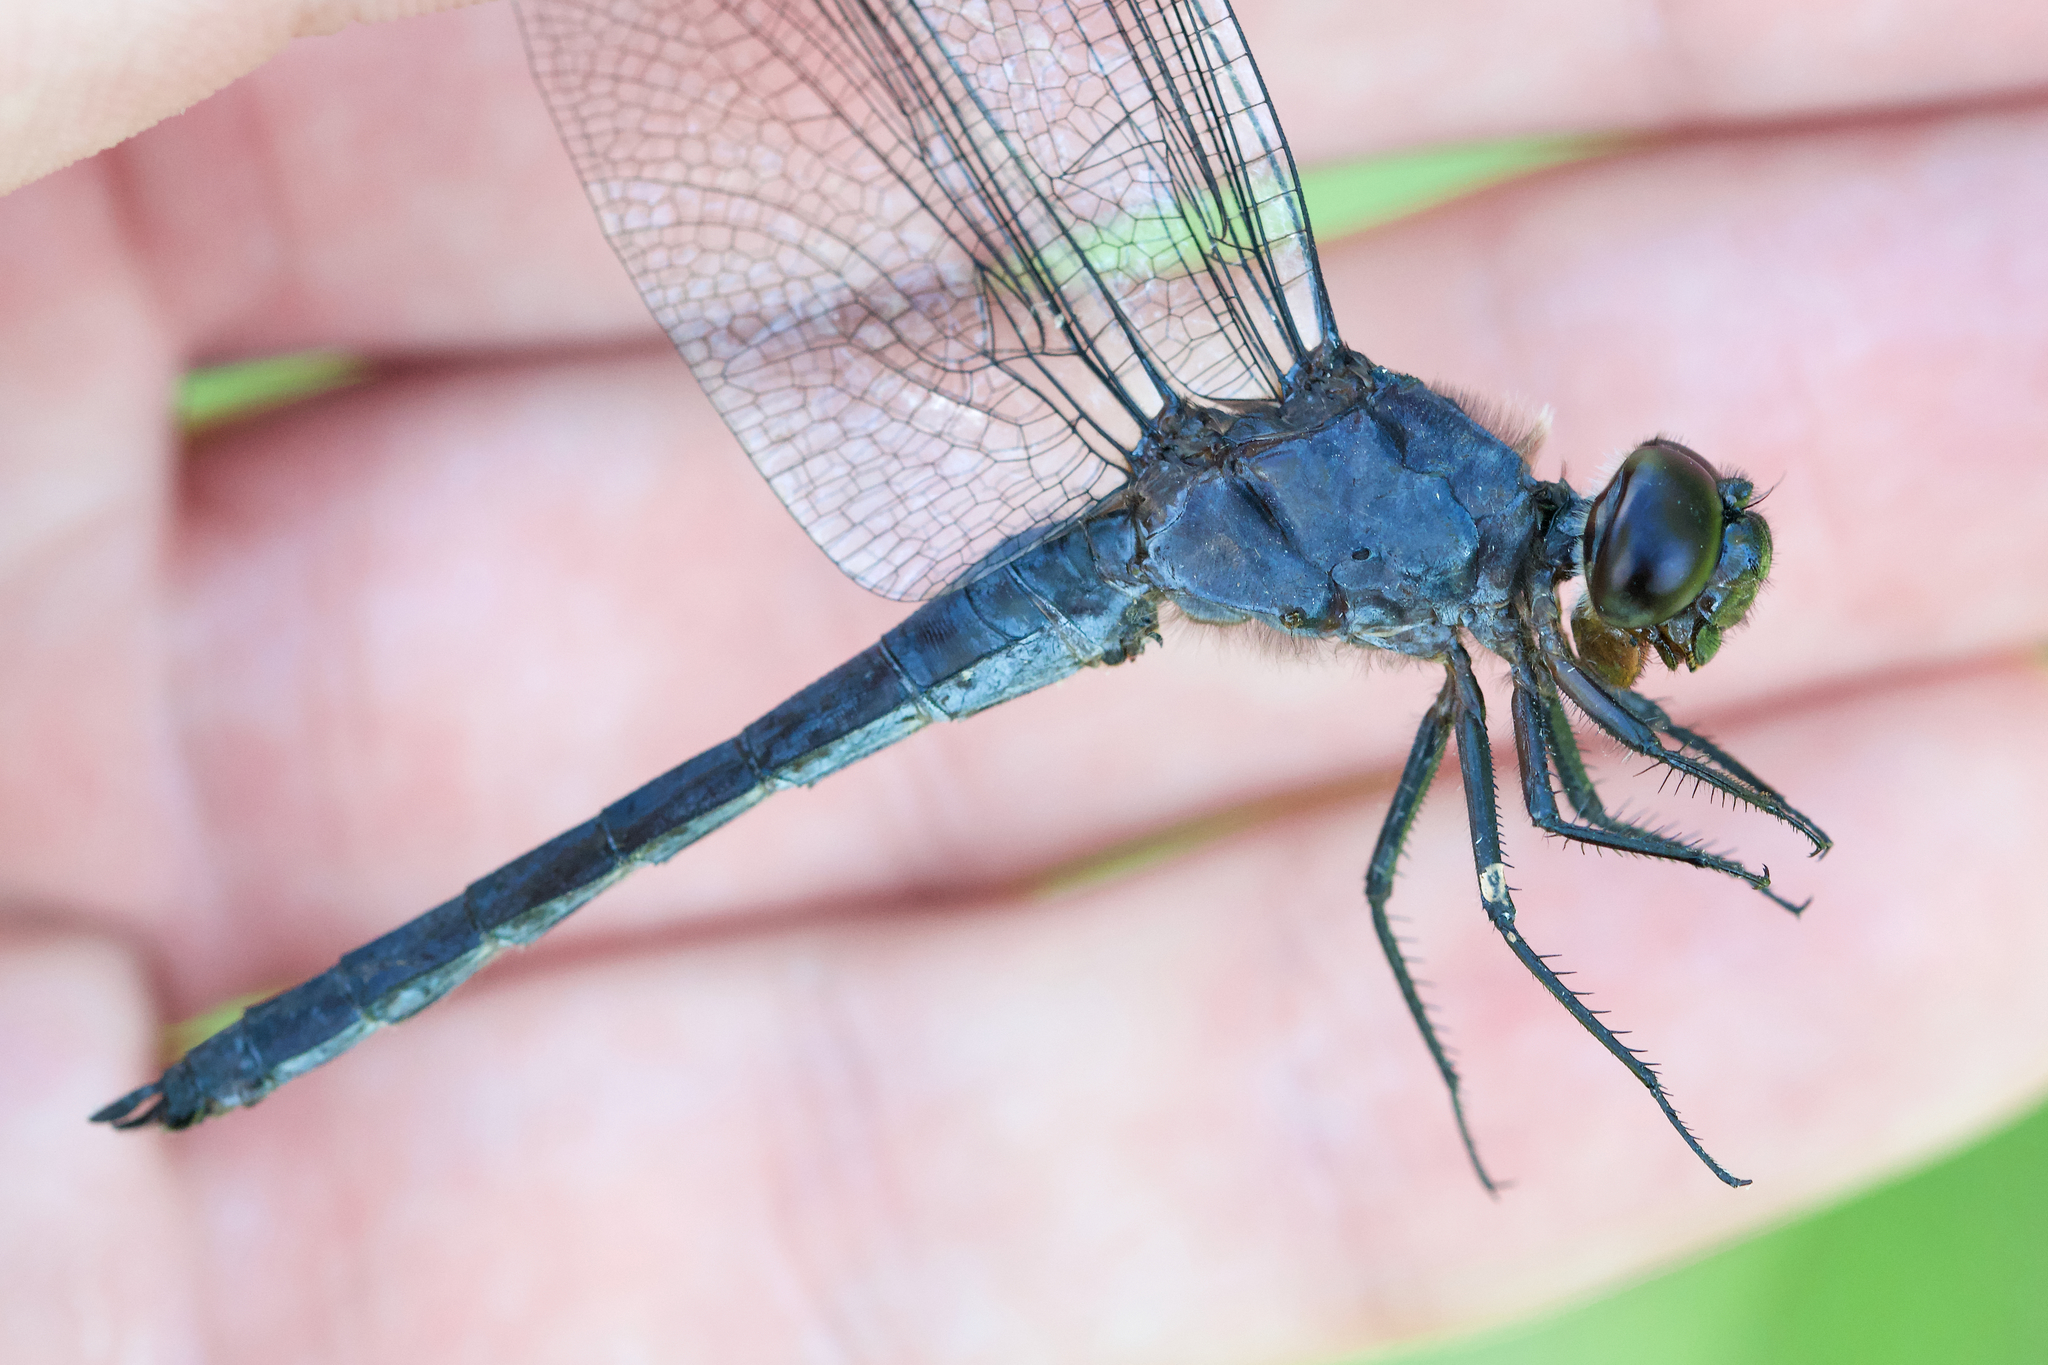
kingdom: Animalia
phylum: Arthropoda
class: Insecta
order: Odonata
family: Libellulidae
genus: Libellula
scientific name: Libellula incesta
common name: Slaty skimmer
